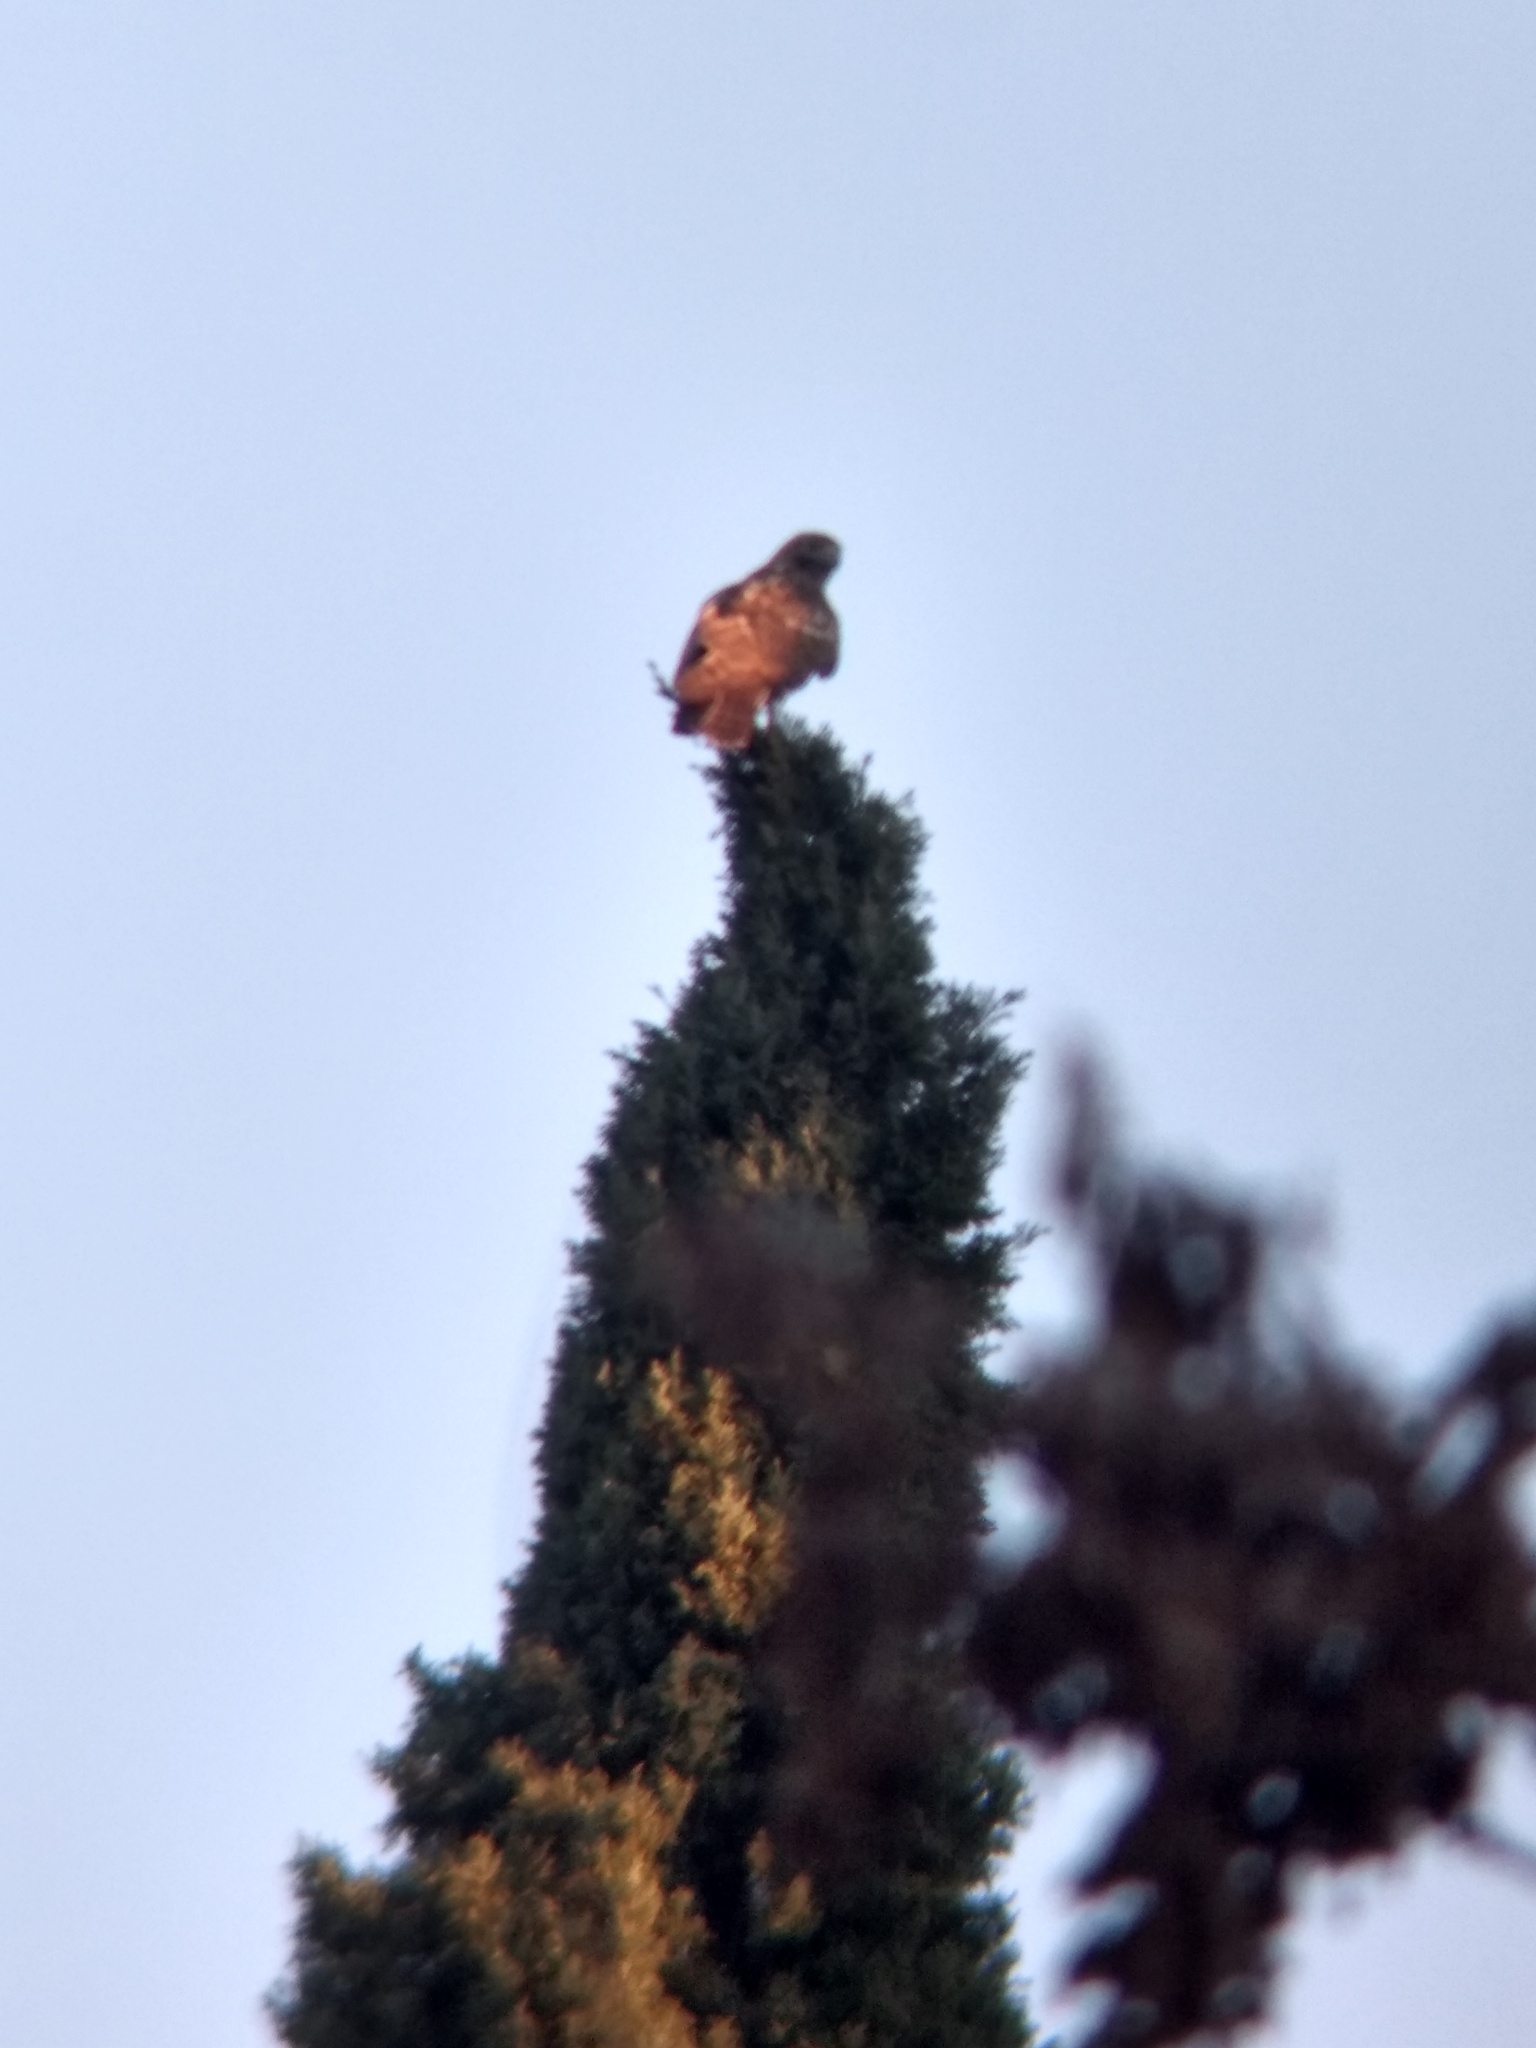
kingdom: Animalia
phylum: Chordata
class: Aves
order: Accipitriformes
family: Accipitridae
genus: Buteo
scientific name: Buteo jamaicensis
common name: Red-tailed hawk
